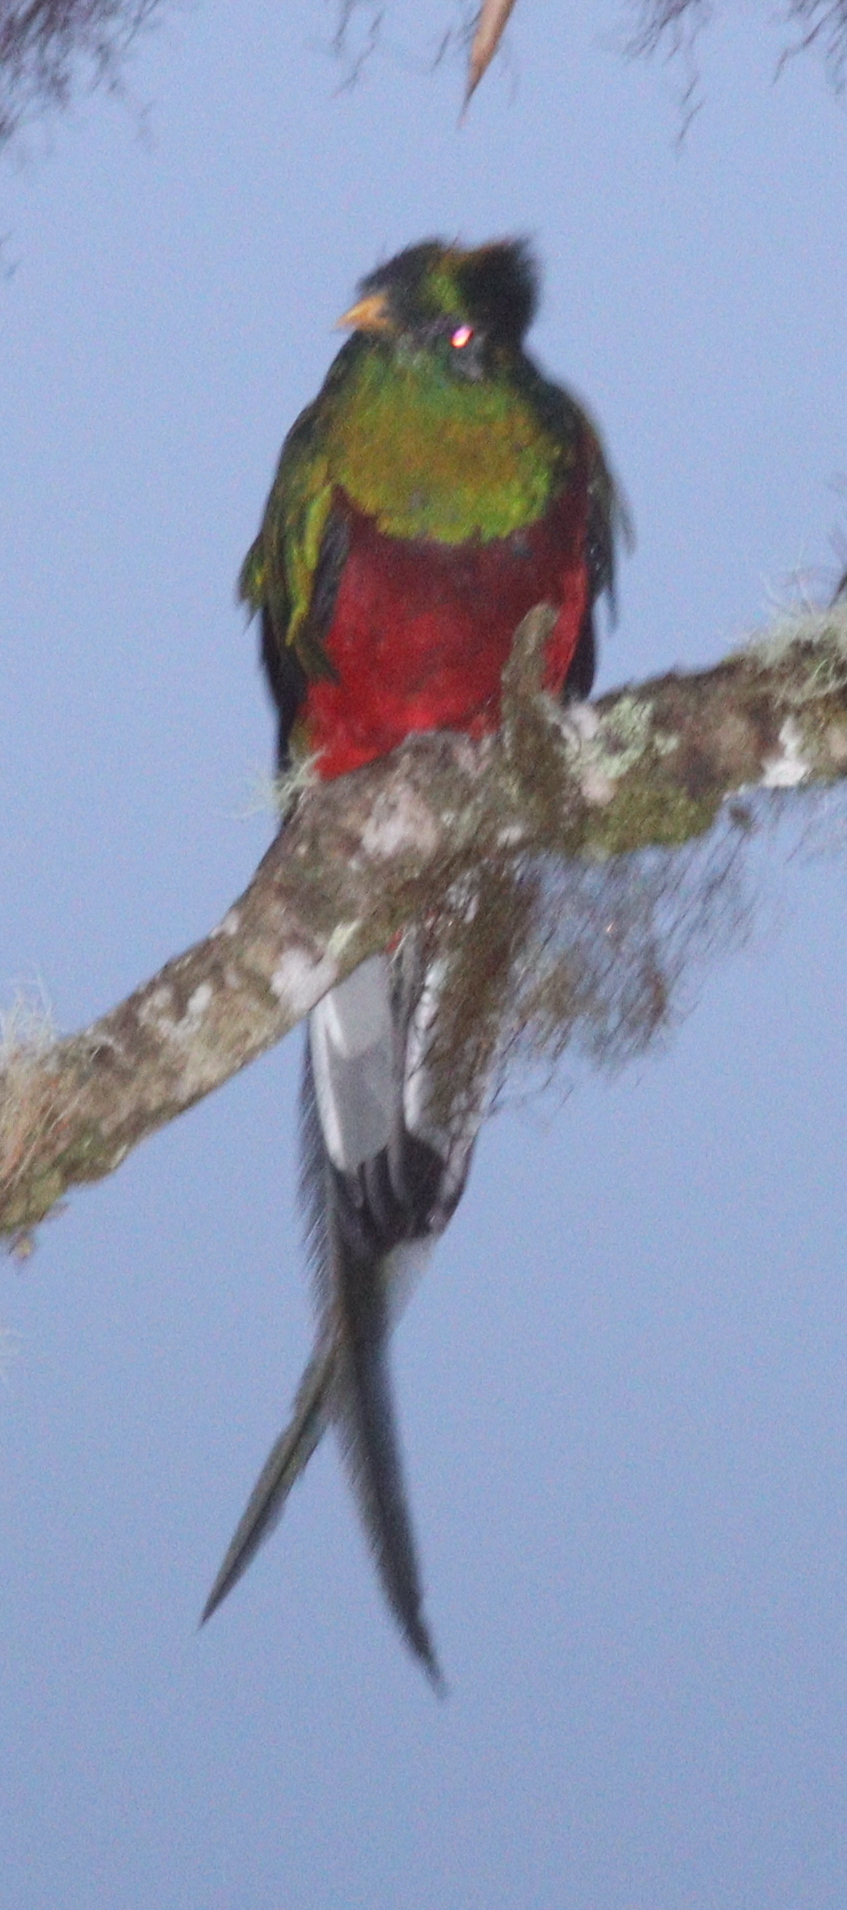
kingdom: Animalia
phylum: Chordata
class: Aves
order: Trogoniformes
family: Trogonidae
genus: Pharomachrus
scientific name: Pharomachrus mocinno
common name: Resplendent quetzal
